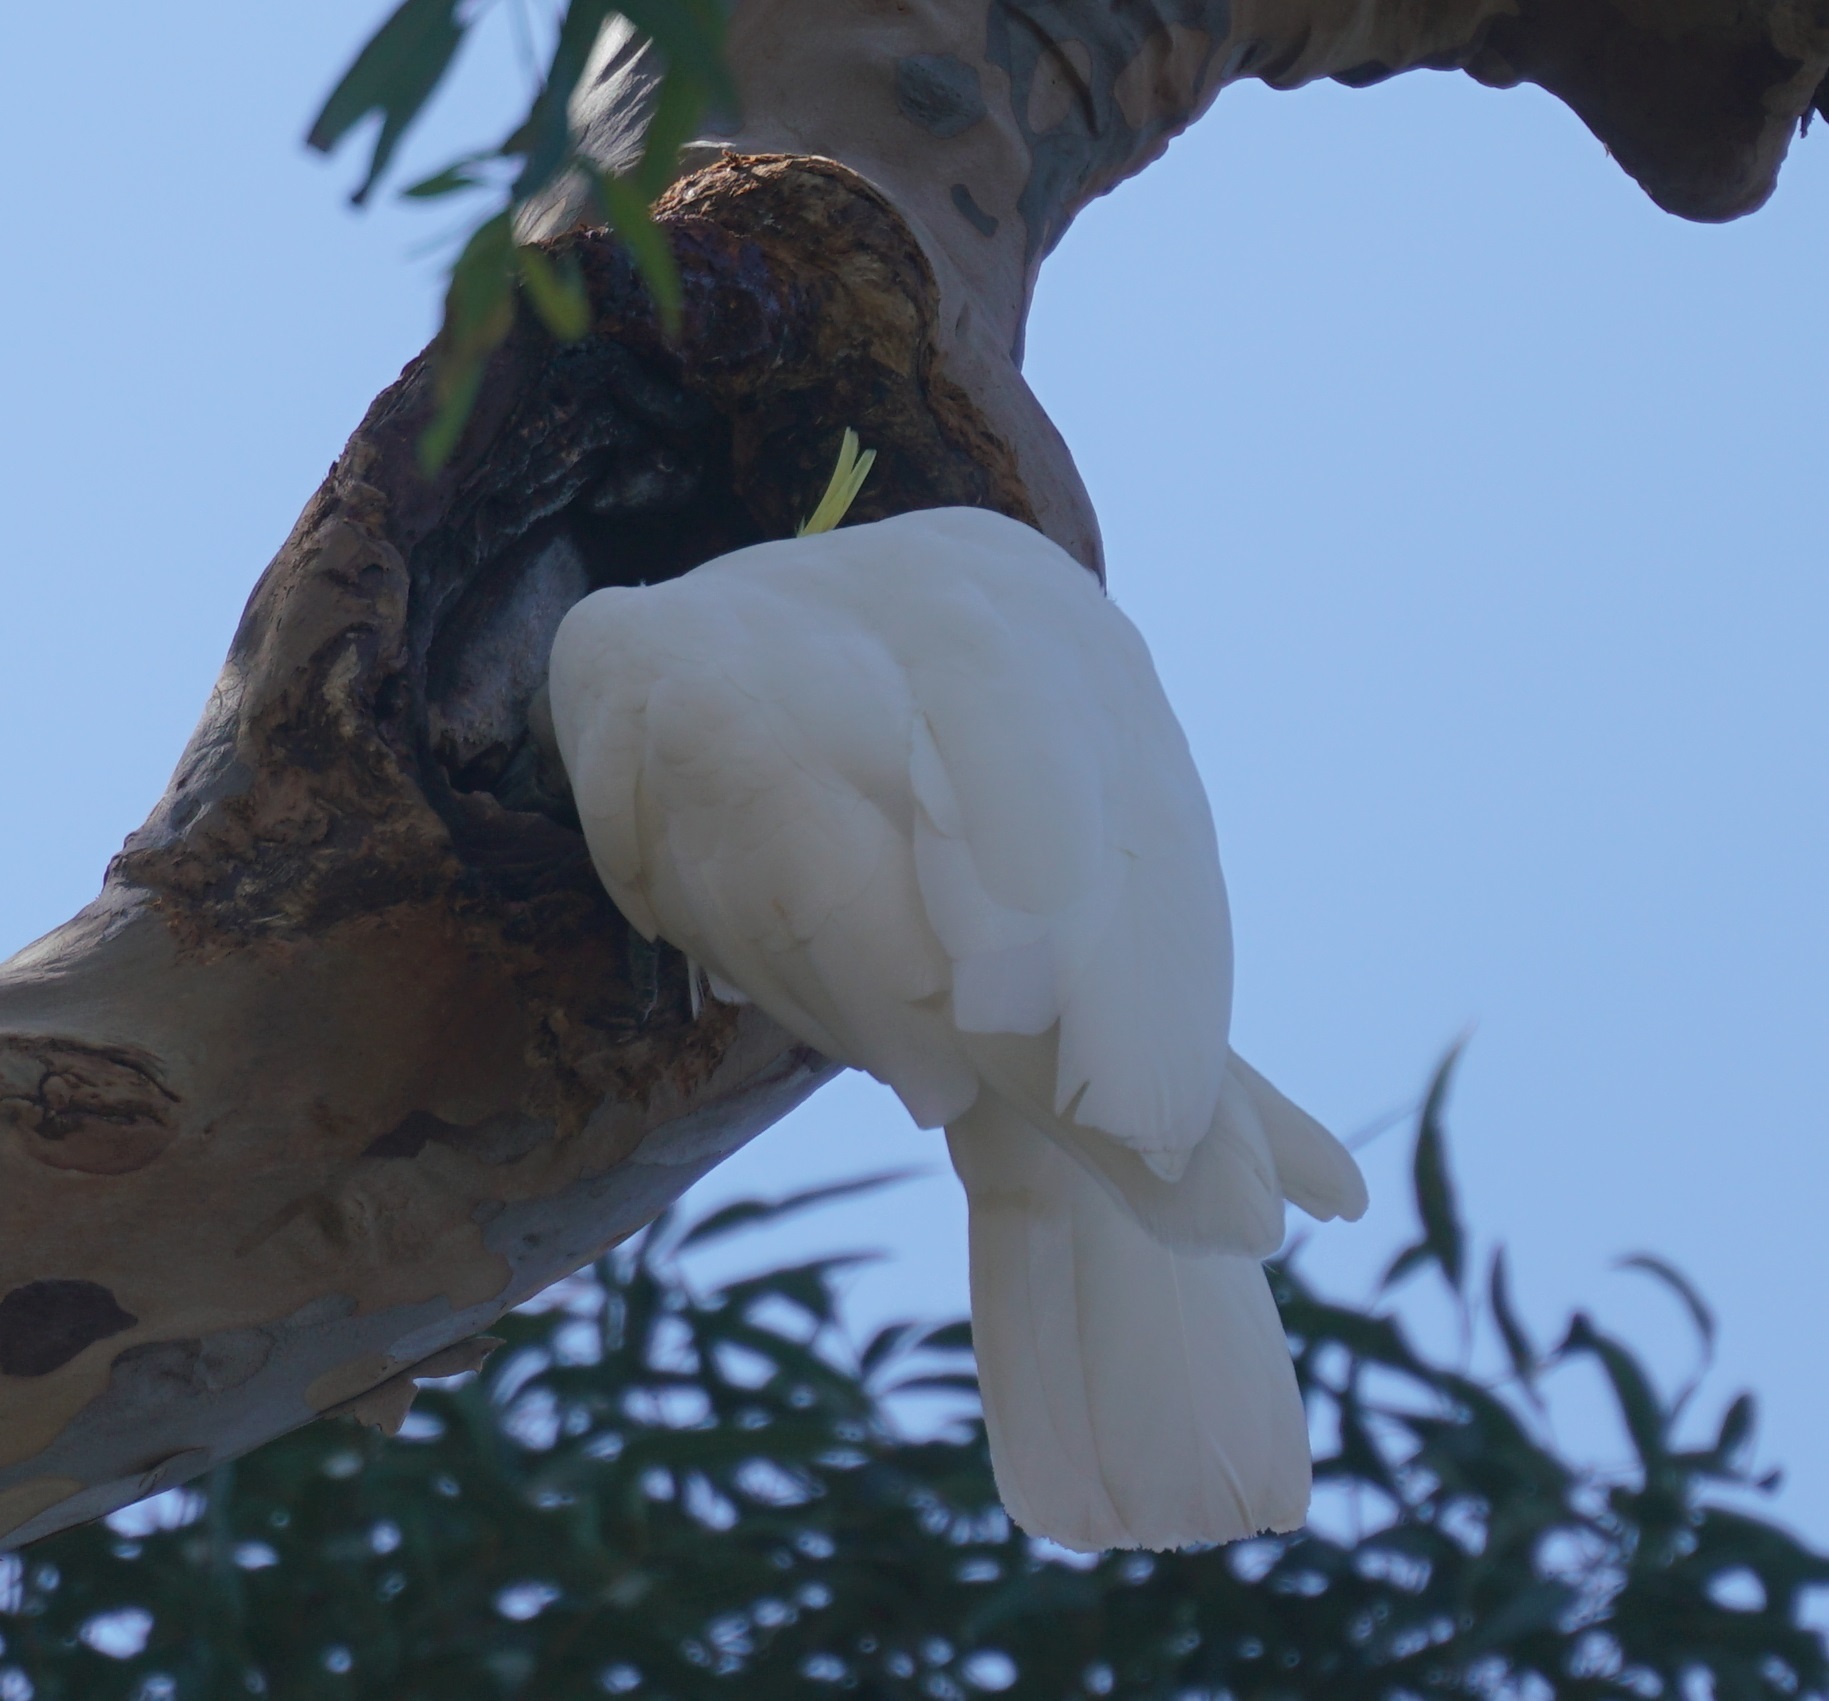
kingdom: Animalia
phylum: Chordata
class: Aves
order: Psittaciformes
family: Psittacidae
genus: Cacatua
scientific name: Cacatua galerita
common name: Sulphur-crested cockatoo
